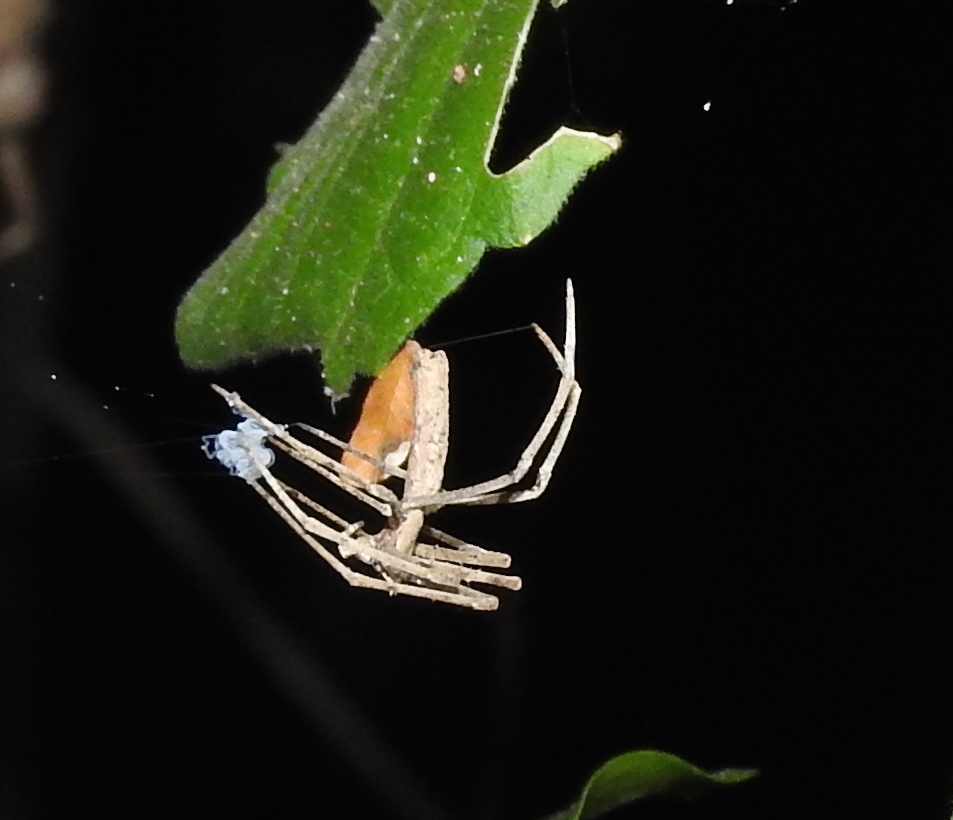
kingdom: Animalia
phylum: Arthropoda
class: Arachnida
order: Araneae
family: Deinopidae
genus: Deinopis
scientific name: Deinopis aurita
